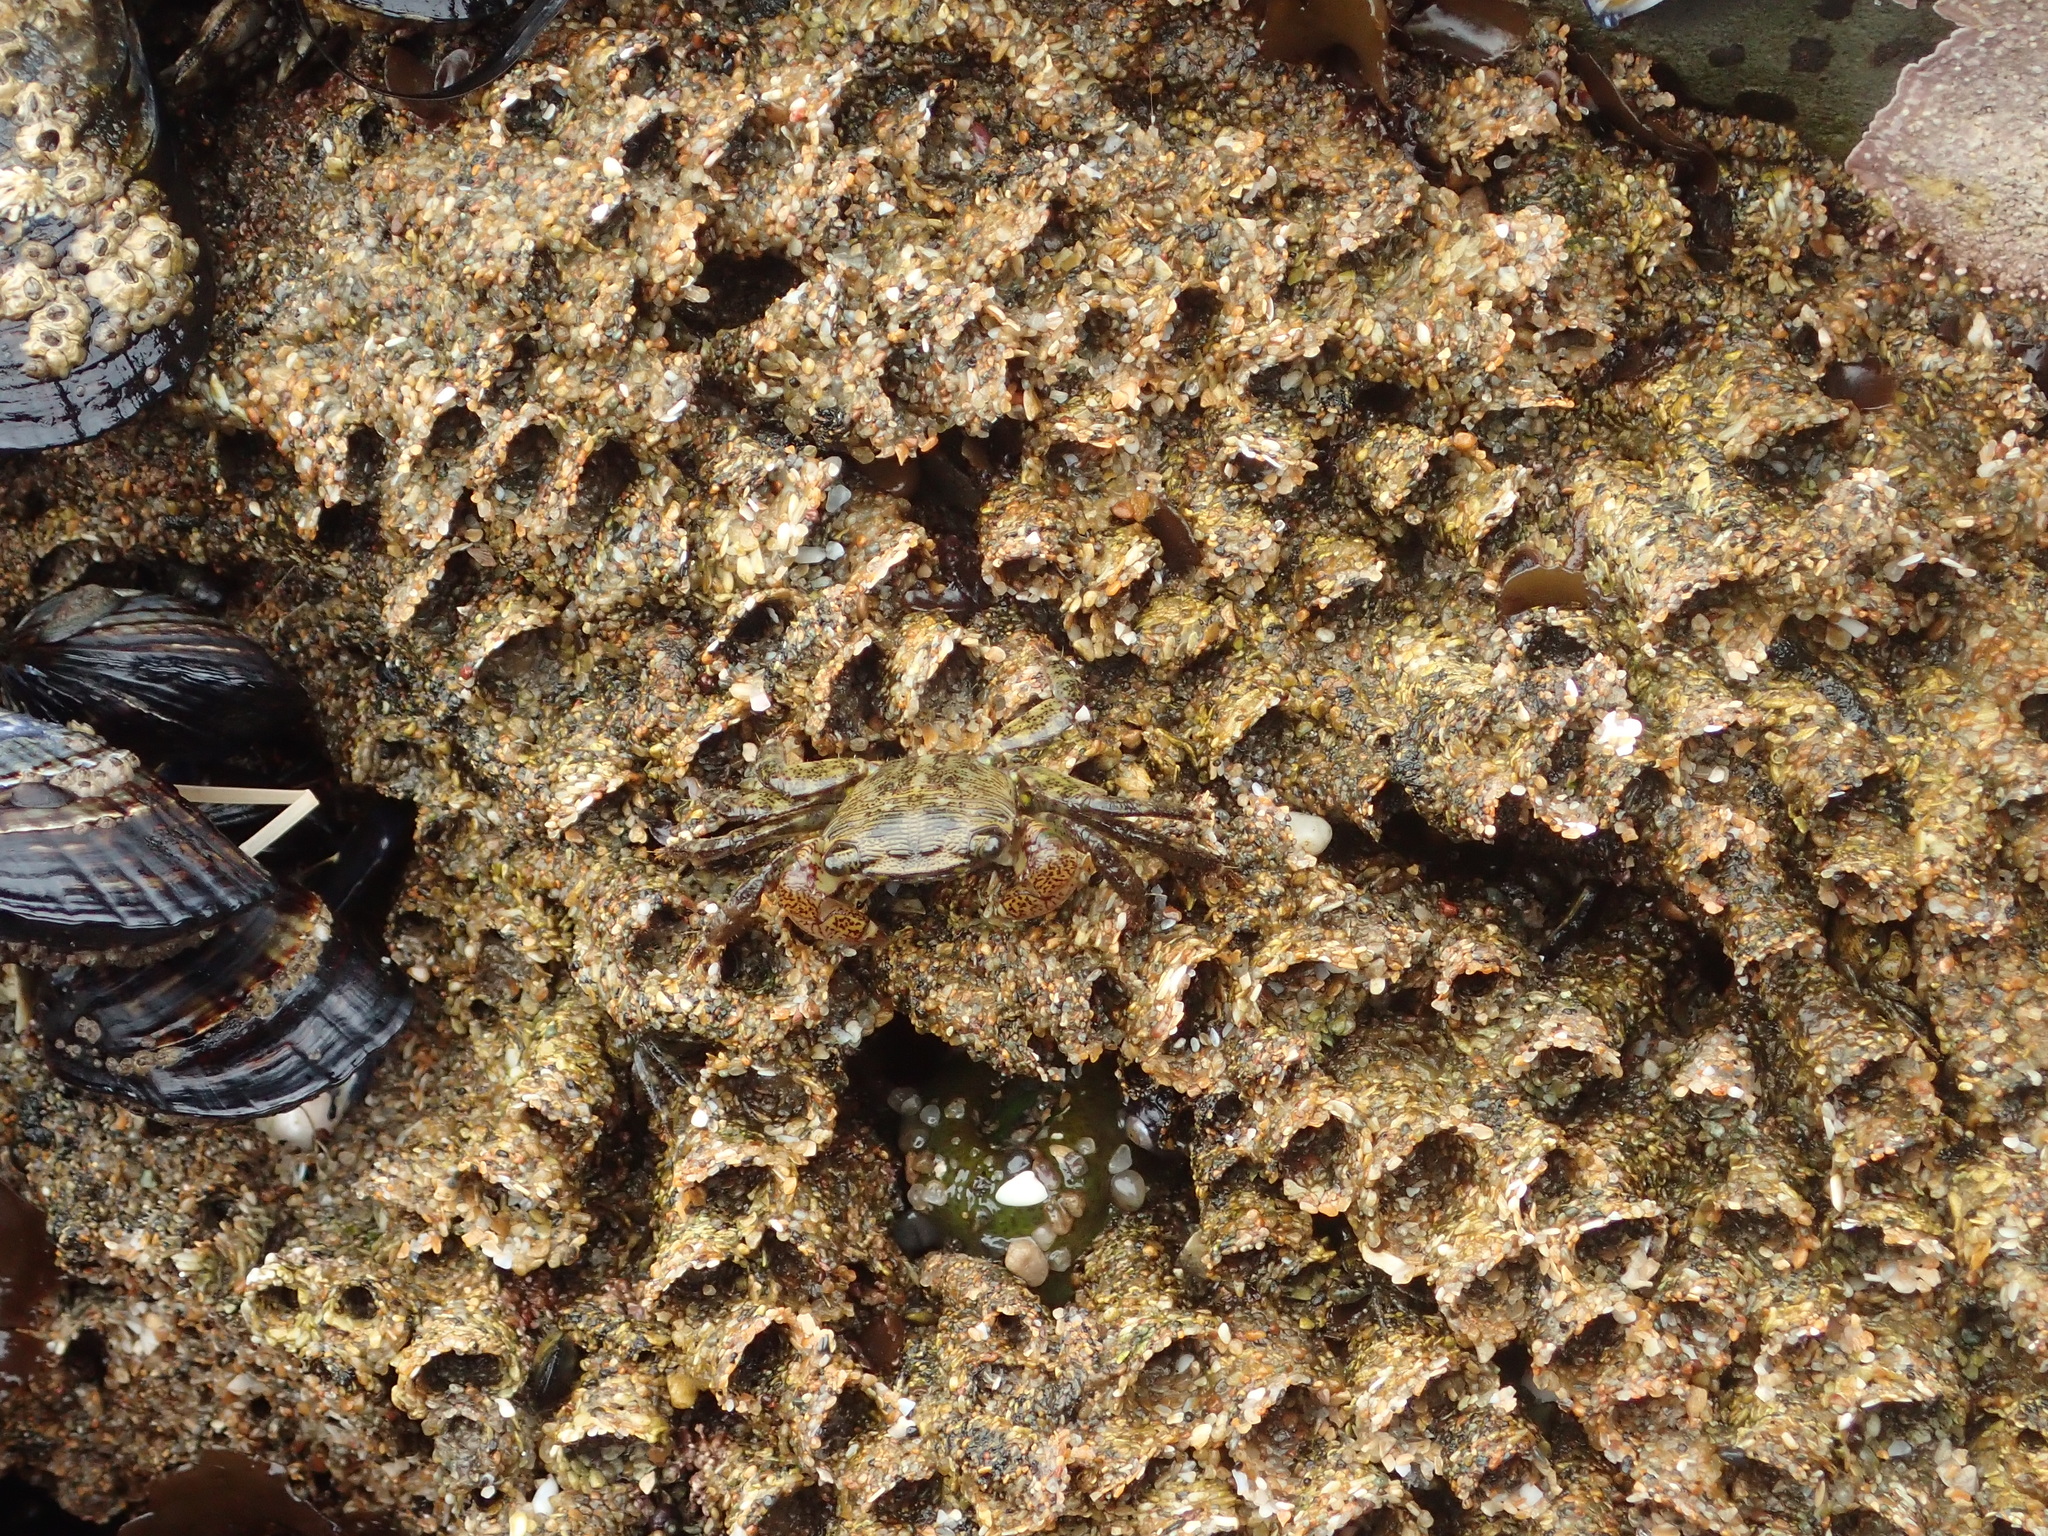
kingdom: Animalia
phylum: Annelida
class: Polychaeta
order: Sabellida
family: Sabellariidae
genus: Phragmatopoma
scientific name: Phragmatopoma californica
